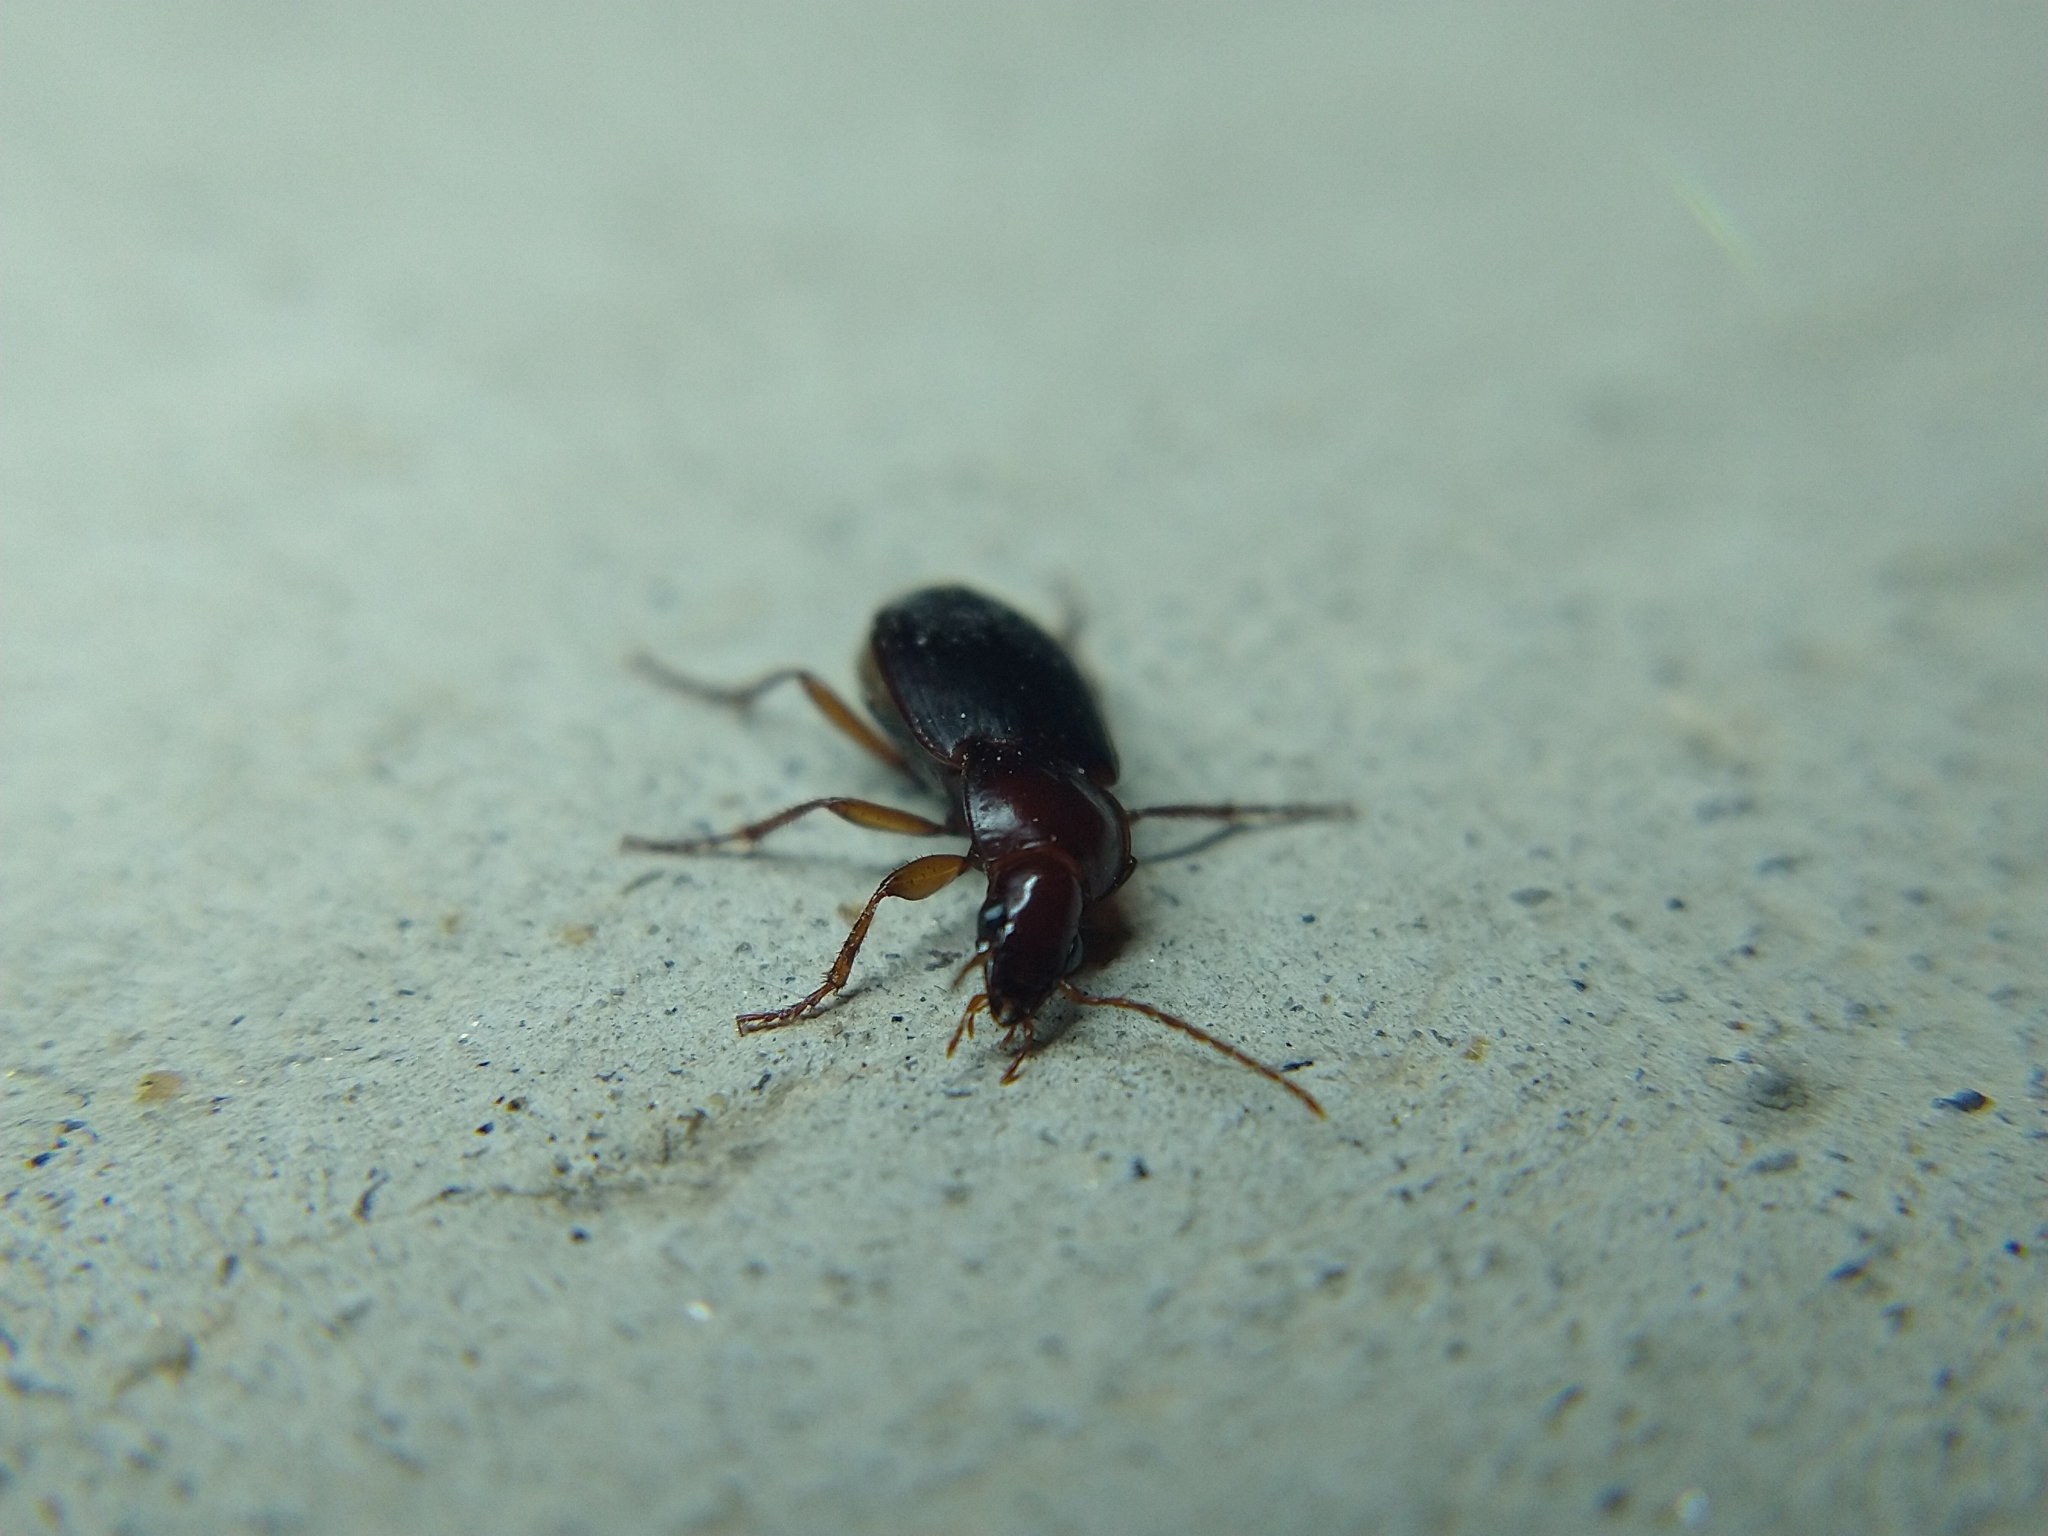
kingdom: Animalia
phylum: Arthropoda
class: Insecta
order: Coleoptera
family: Carabidae
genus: Calathus
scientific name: Calathus ruficollis
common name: Red-collared harp ground beetle
